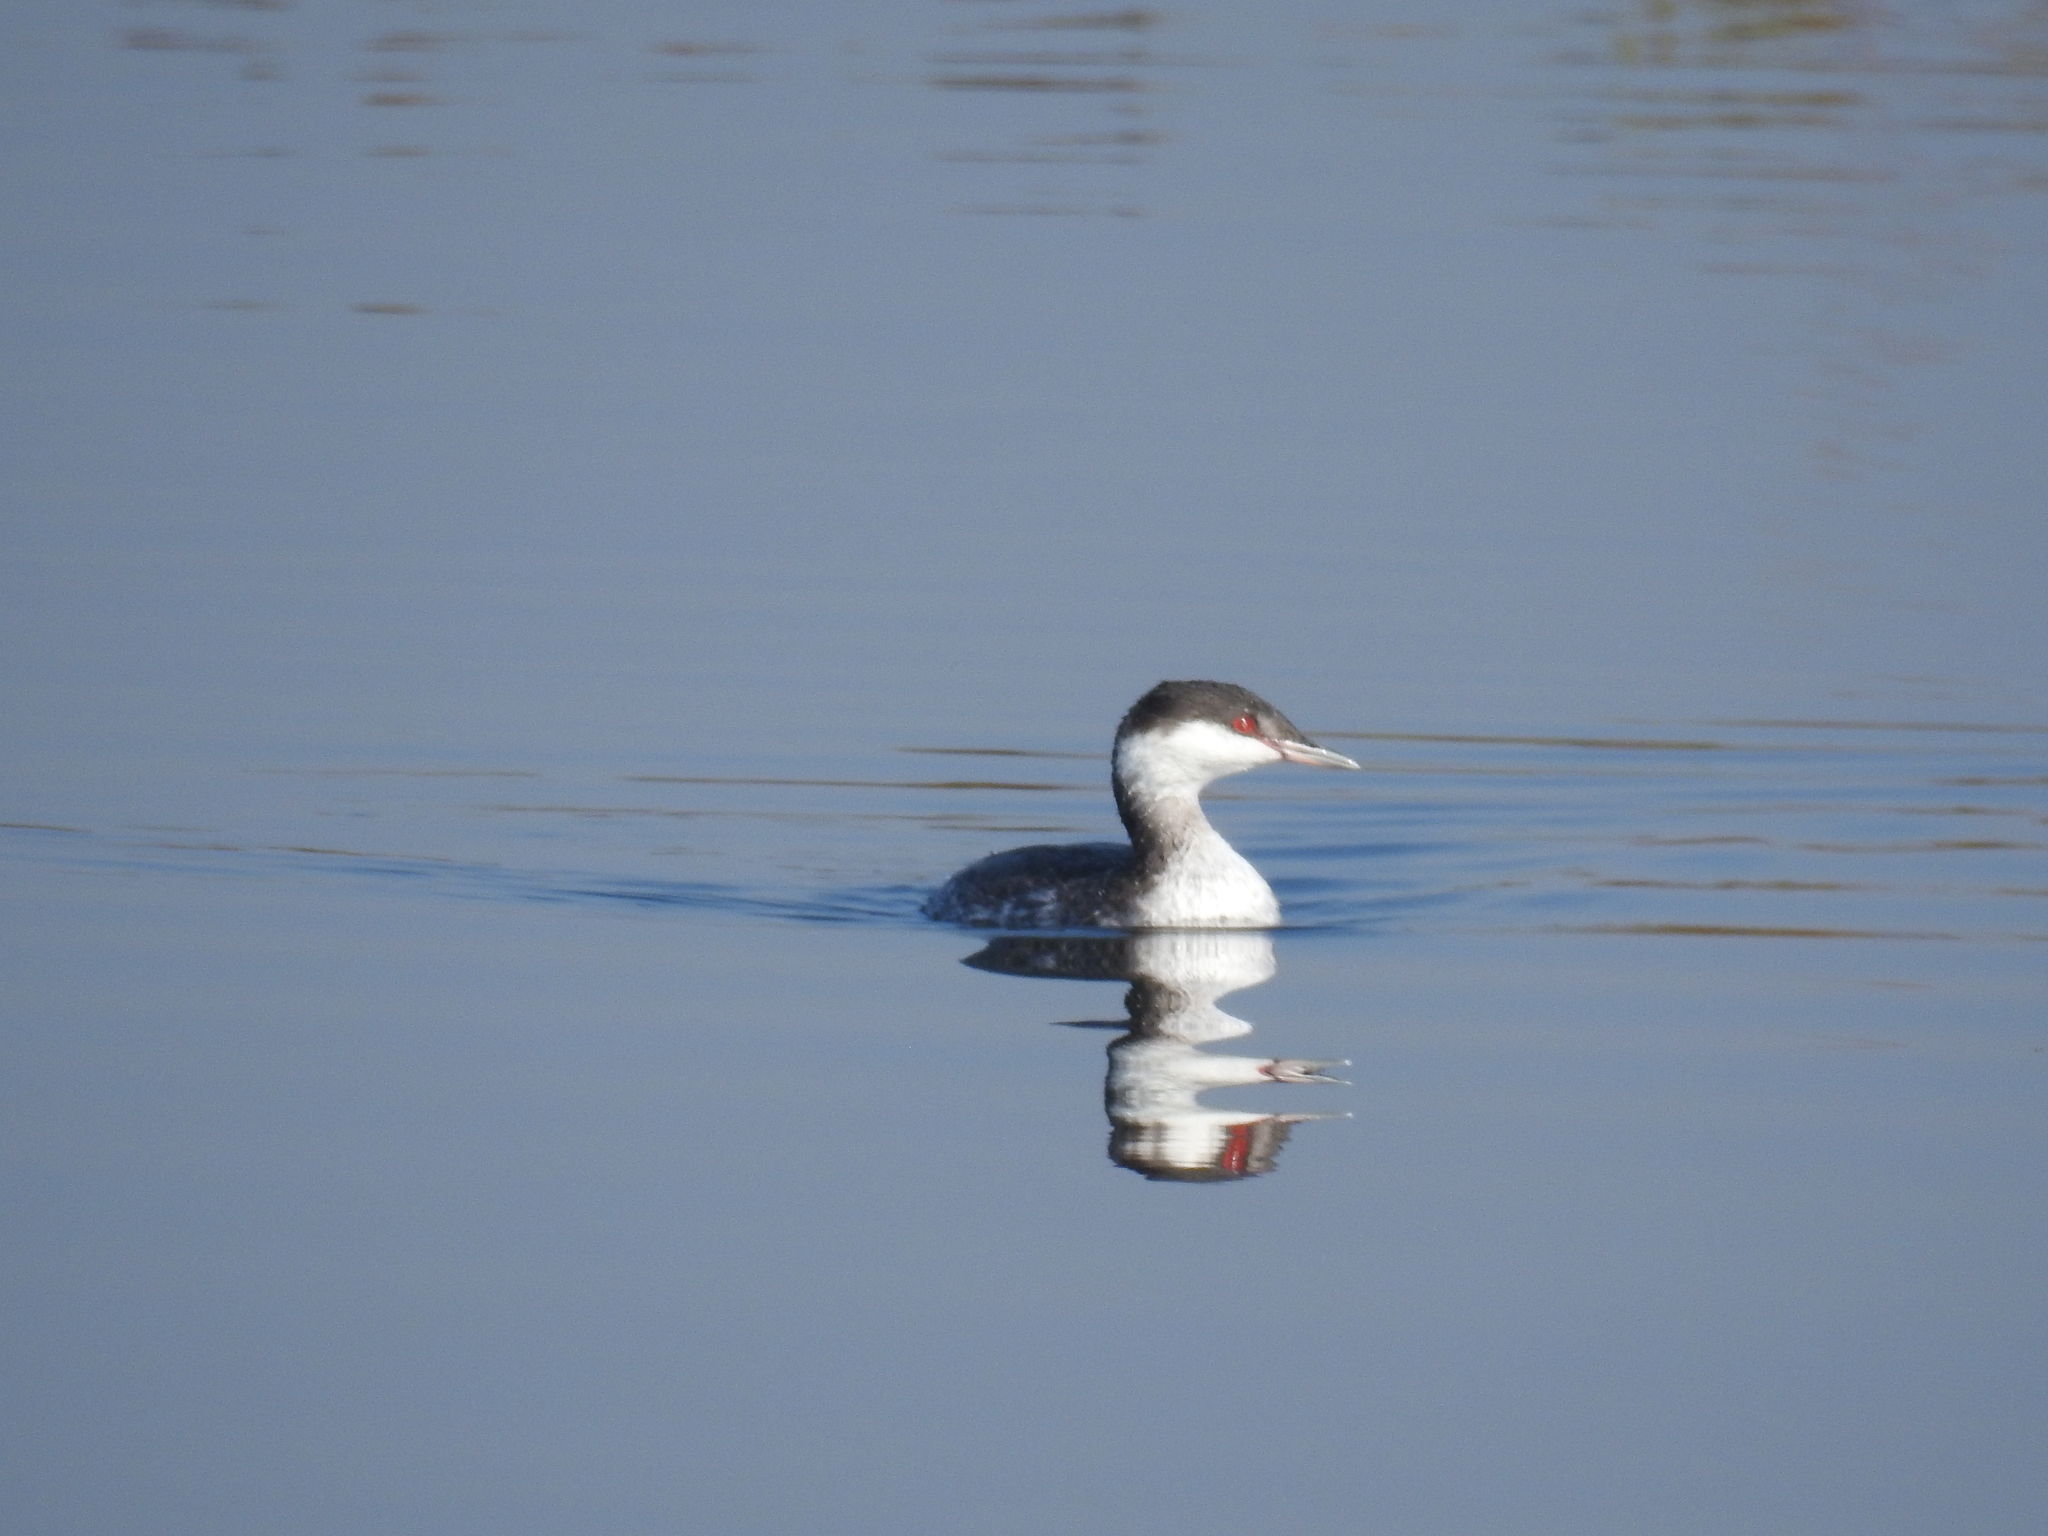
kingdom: Animalia
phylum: Chordata
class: Aves
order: Podicipediformes
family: Podicipedidae
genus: Podiceps
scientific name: Podiceps auritus
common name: Horned grebe
